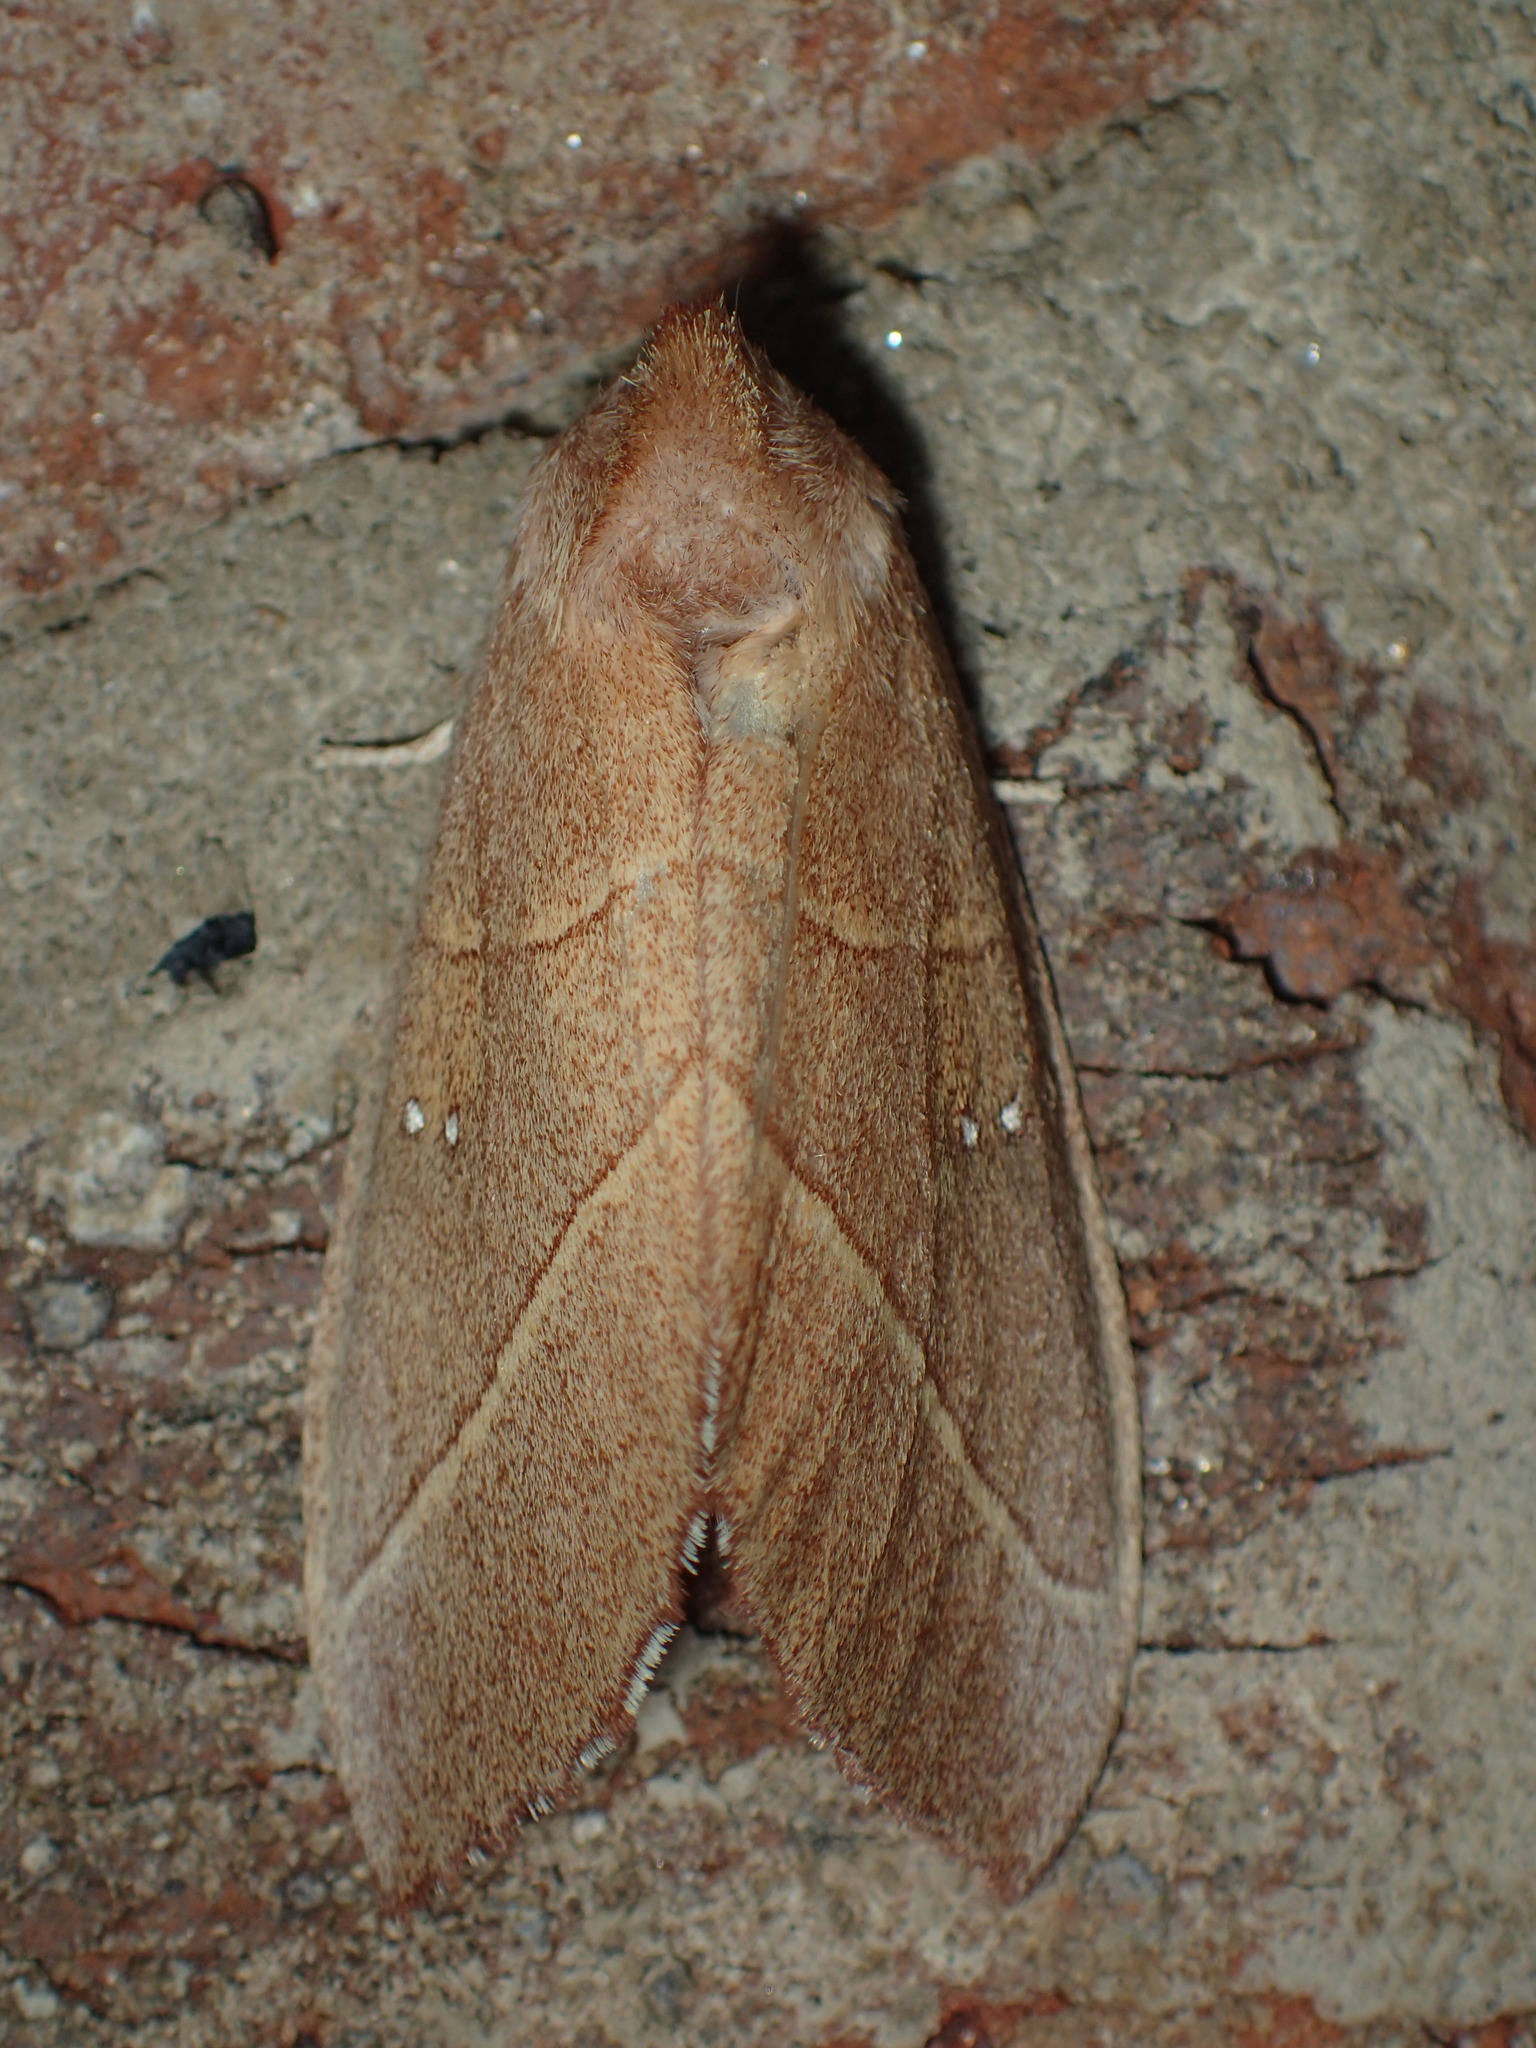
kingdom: Animalia
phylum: Arthropoda
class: Insecta
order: Lepidoptera
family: Notodontidae
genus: Nadata
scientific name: Nadata gibbosa
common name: White-dotted prominent
